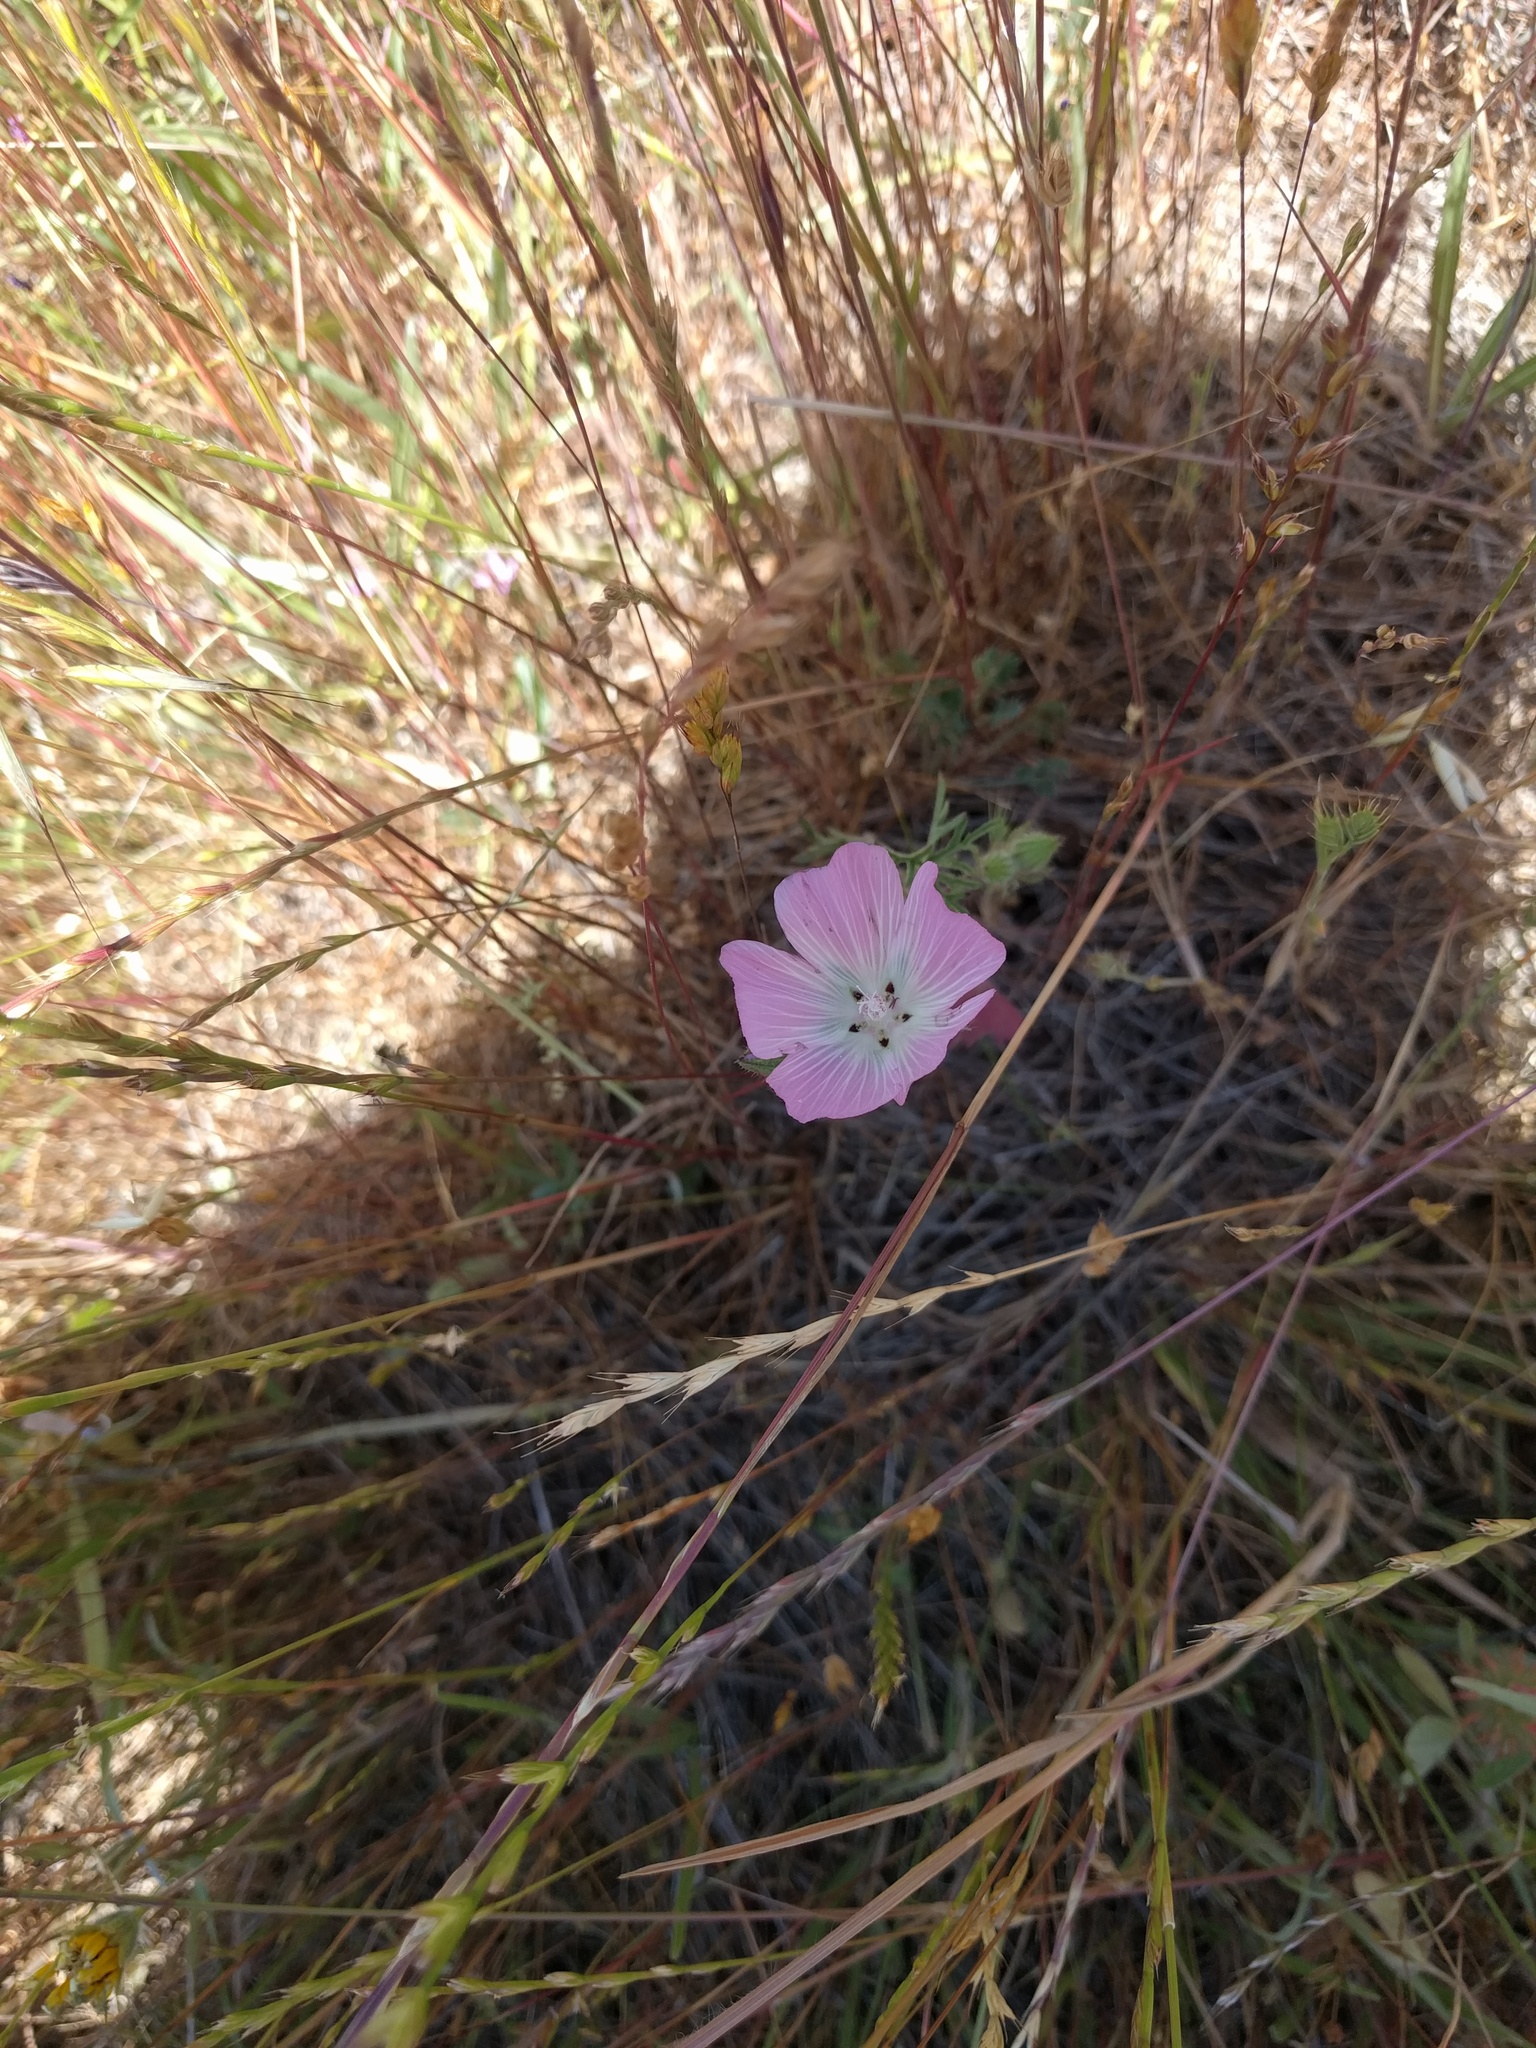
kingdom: Plantae
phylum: Tracheophyta
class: Magnoliopsida
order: Malvales
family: Malvaceae
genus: Sidalcea
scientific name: Sidalcea diploscypha
